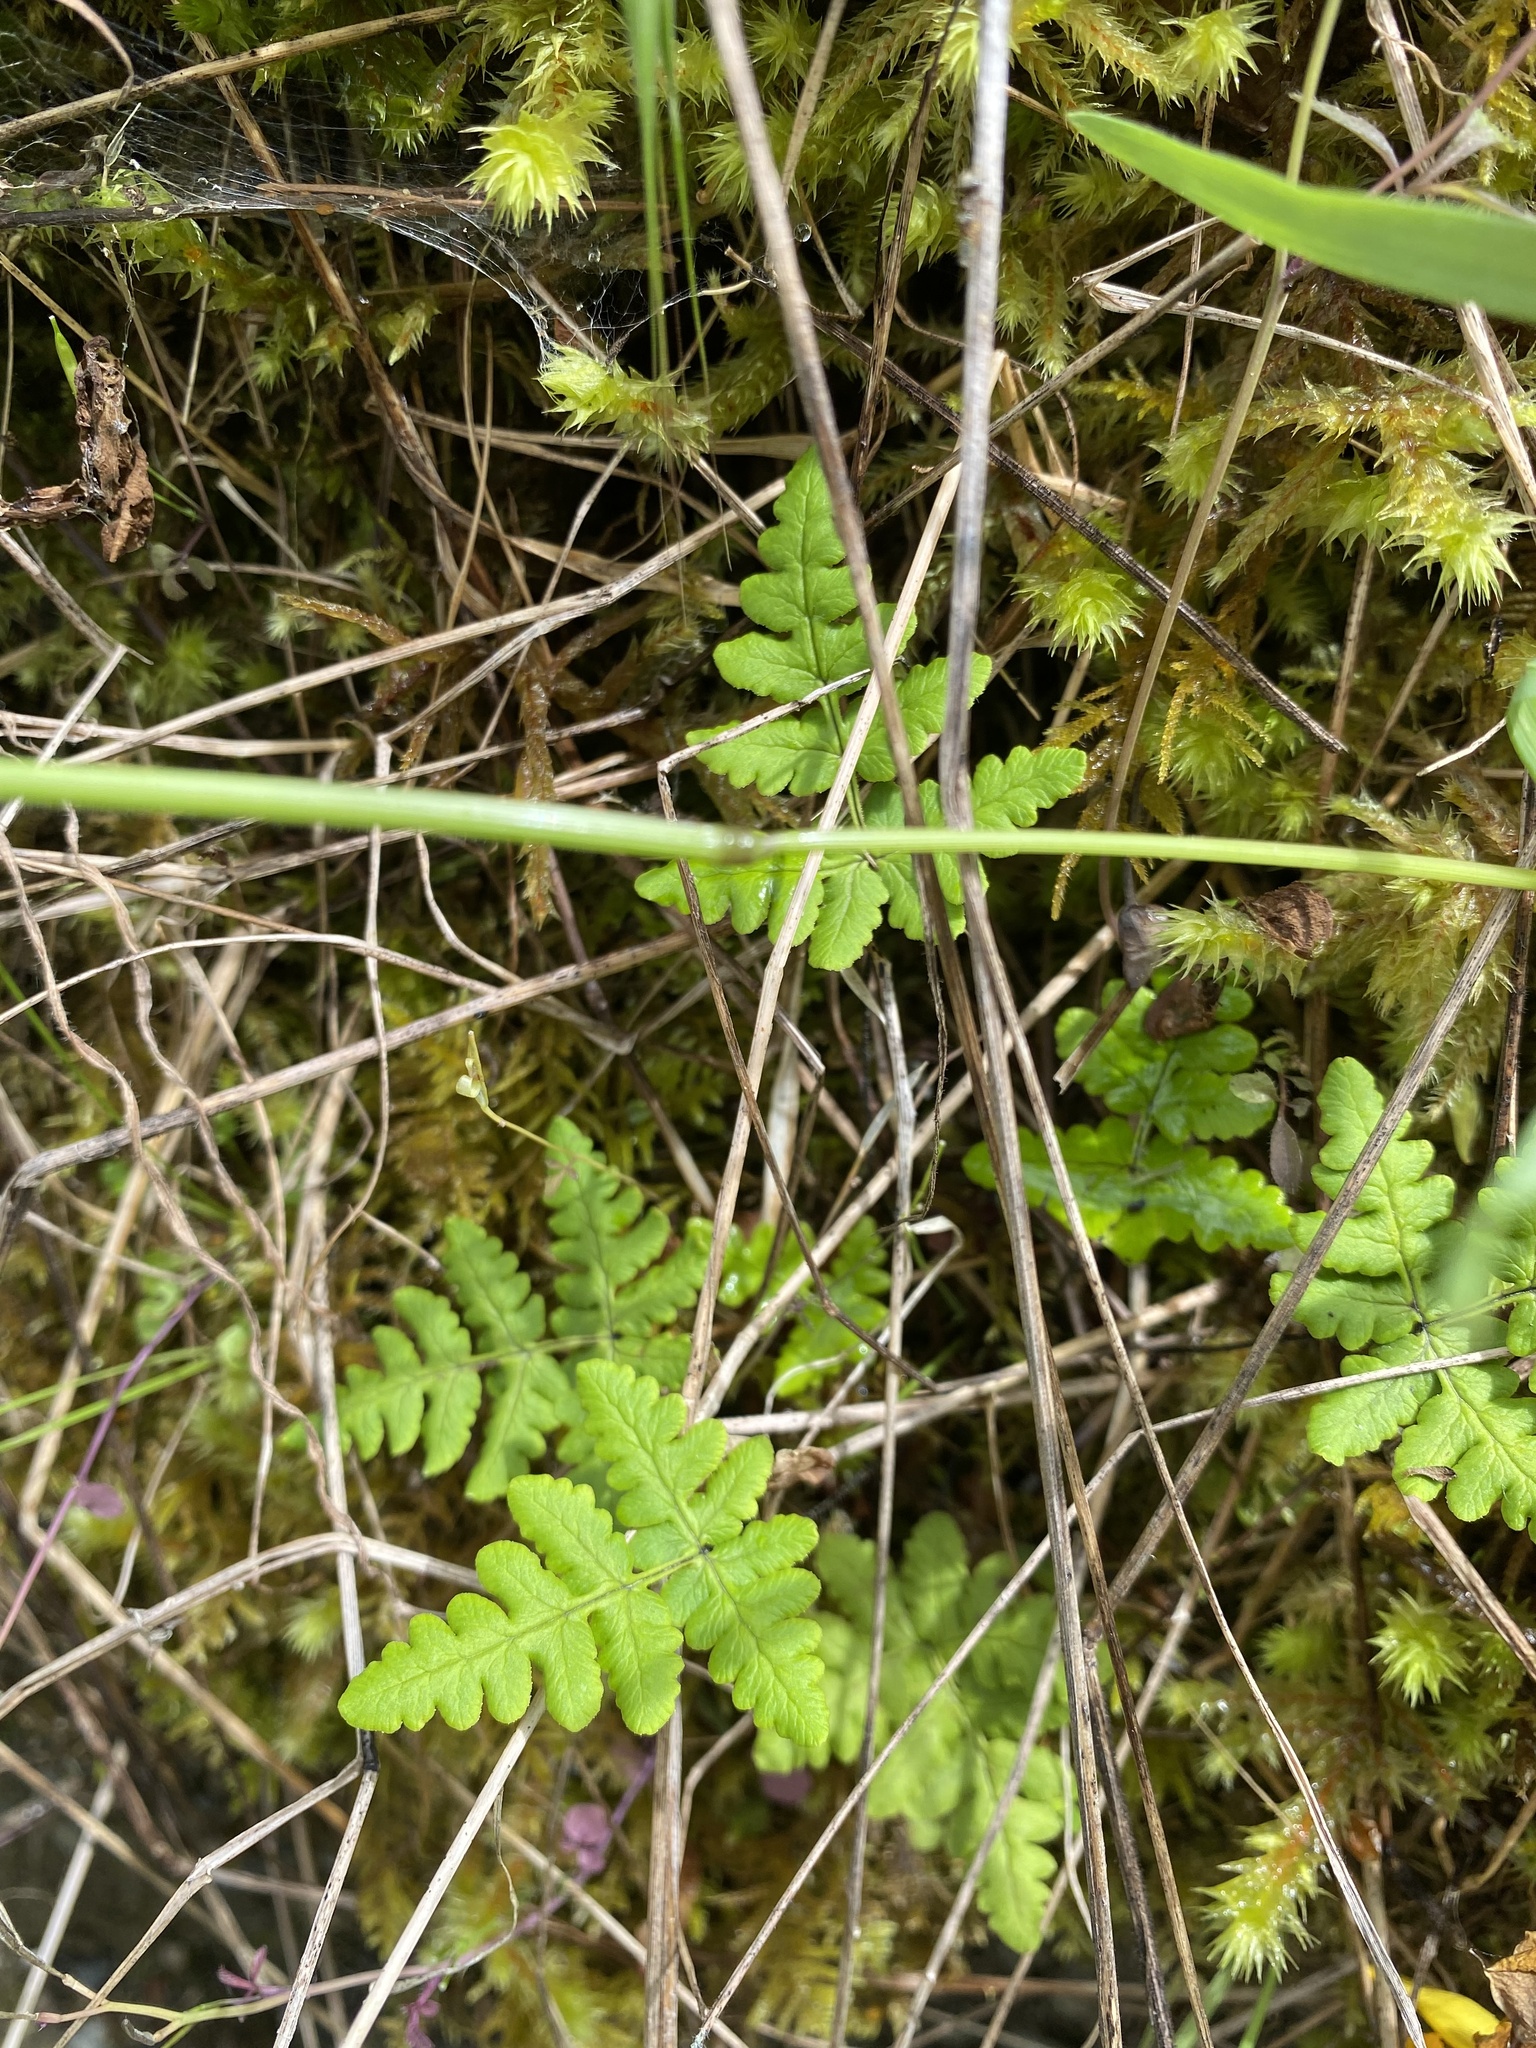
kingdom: Plantae
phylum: Tracheophyta
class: Polypodiopsida
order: Polypodiales
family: Pteridaceae
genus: Pentagramma
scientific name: Pentagramma triangularis
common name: Gold fern
